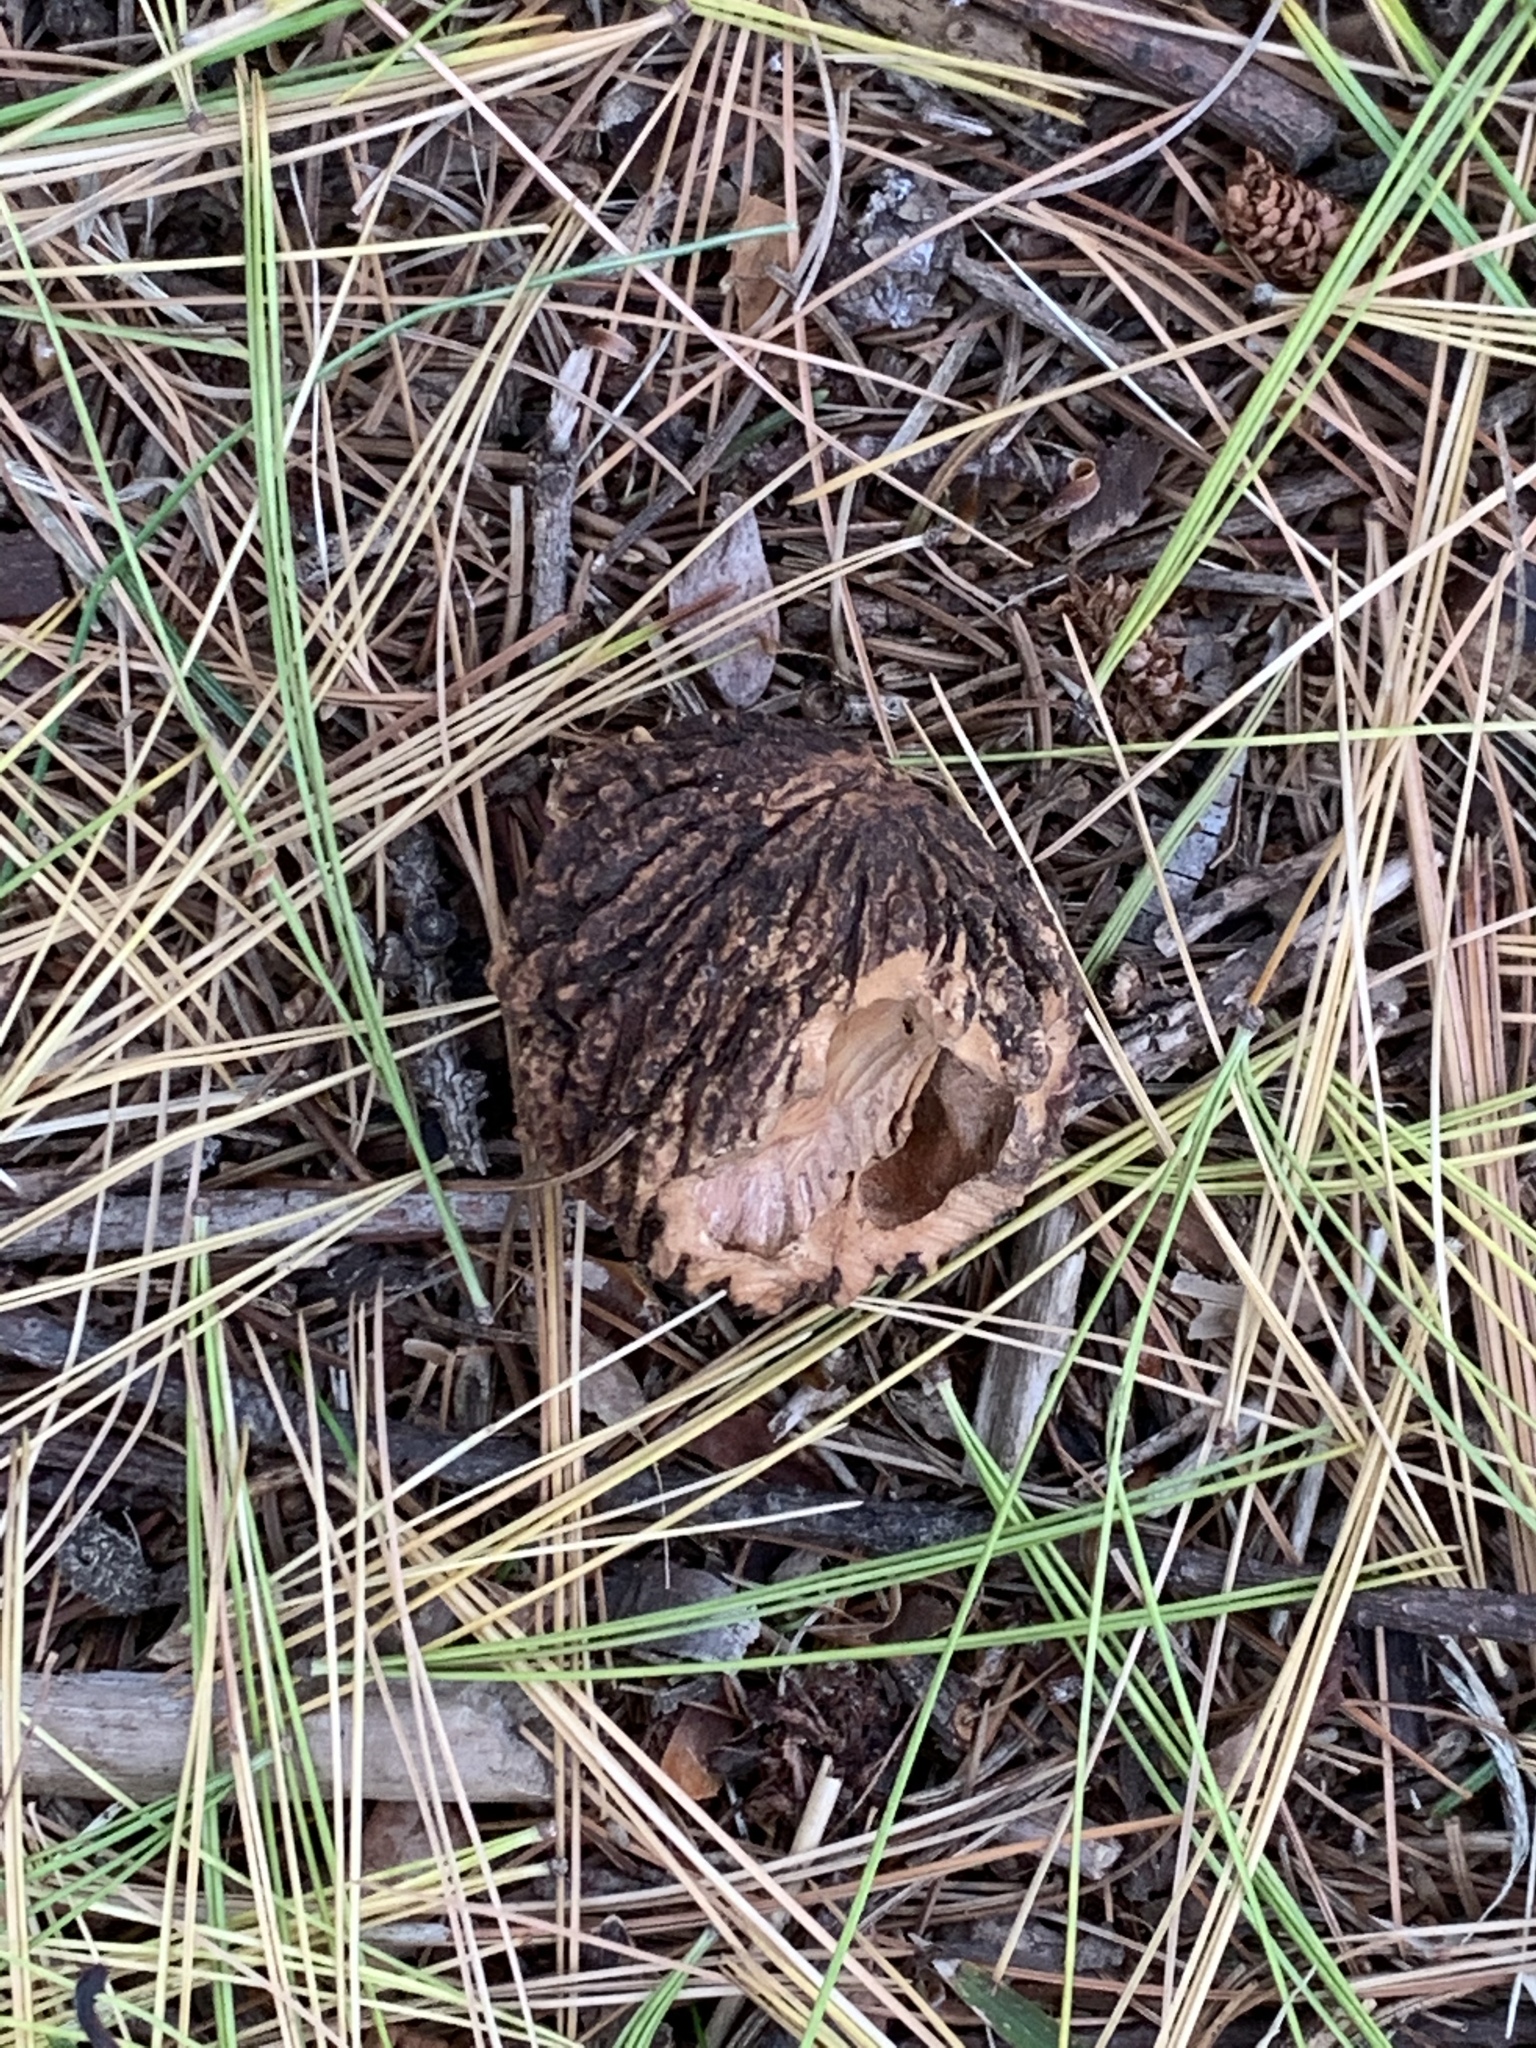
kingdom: Plantae
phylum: Tracheophyta
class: Magnoliopsida
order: Fagales
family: Juglandaceae
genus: Juglans
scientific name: Juglans nigra
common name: Black walnut
